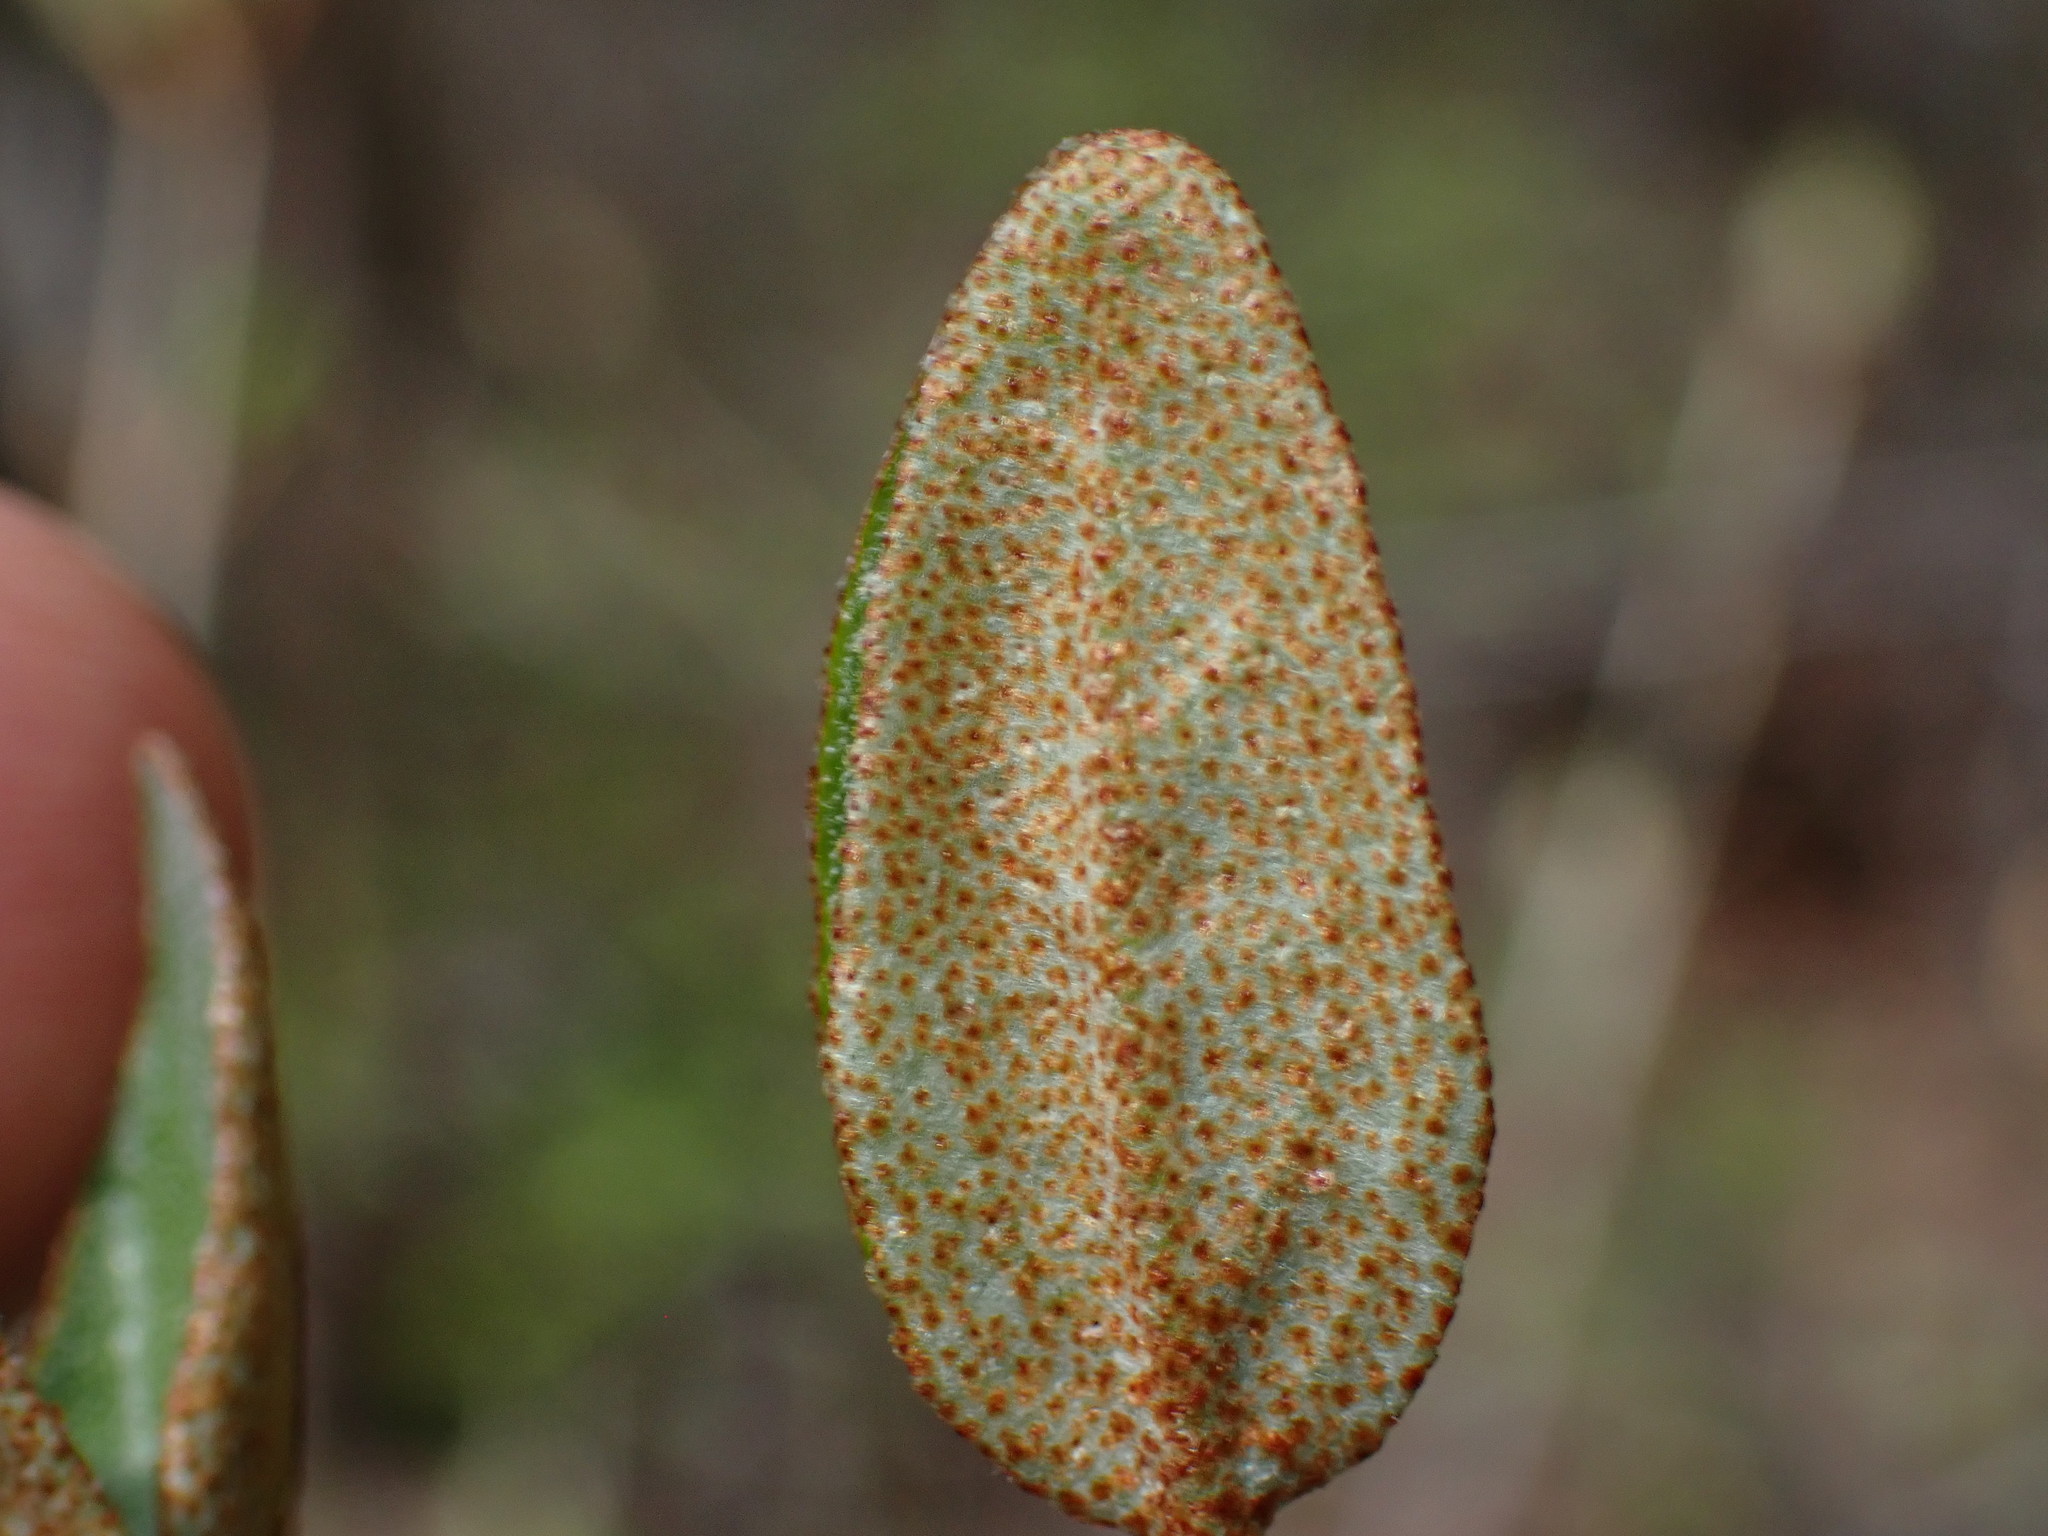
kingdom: Plantae
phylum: Tracheophyta
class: Magnoliopsida
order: Rosales
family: Elaeagnaceae
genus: Shepherdia
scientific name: Shepherdia canadensis
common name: Soapberry
